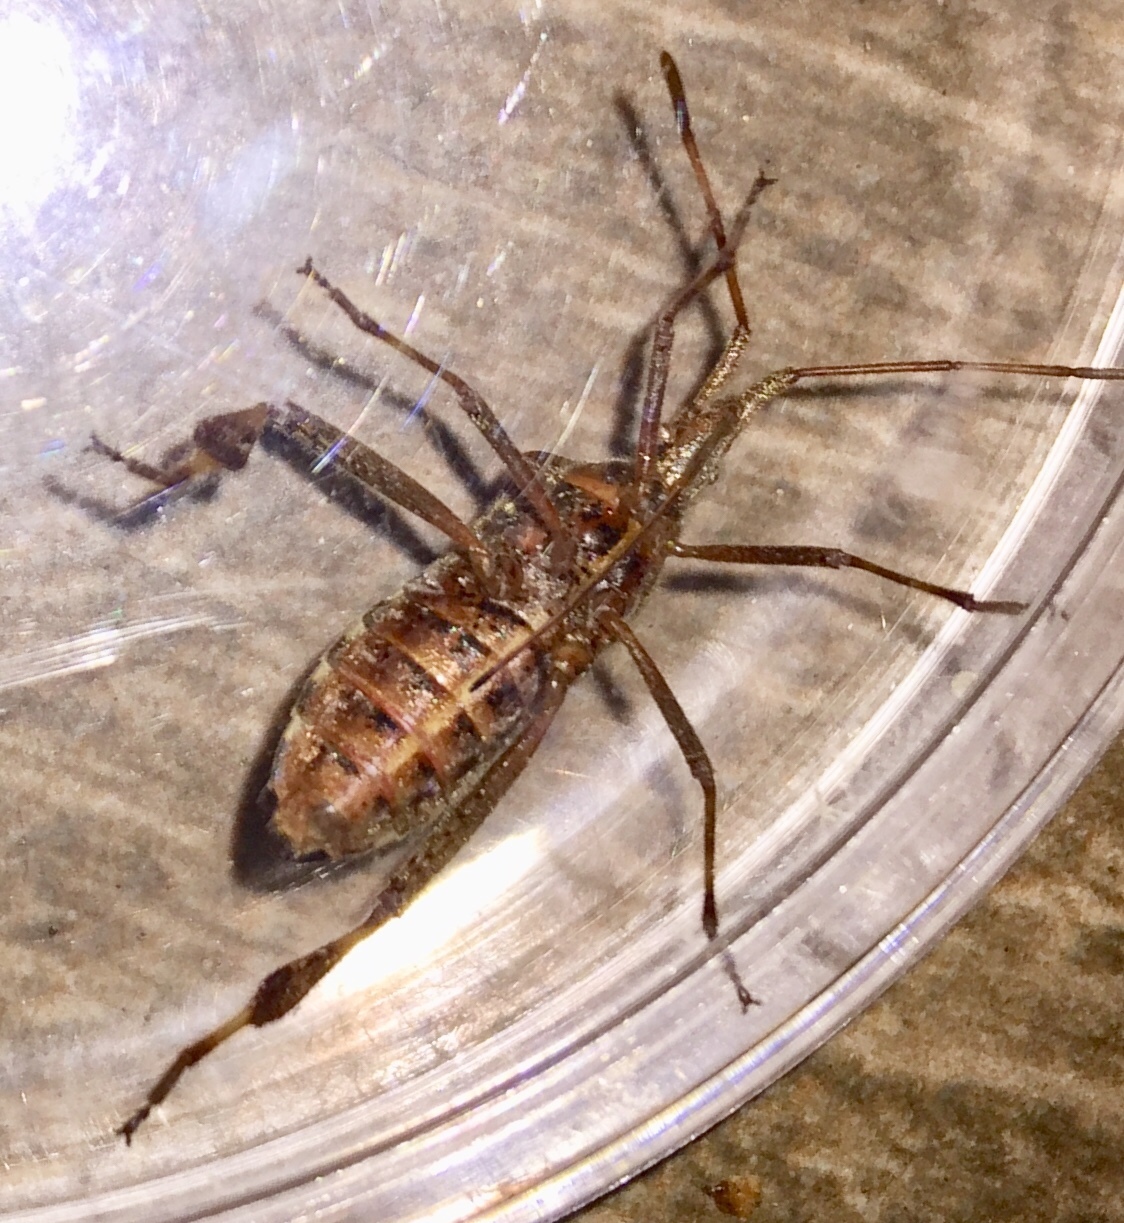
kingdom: Animalia
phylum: Arthropoda
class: Insecta
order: Hemiptera
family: Coreidae
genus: Leptoglossus
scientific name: Leptoglossus occidentalis
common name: Western conifer-seed bug
